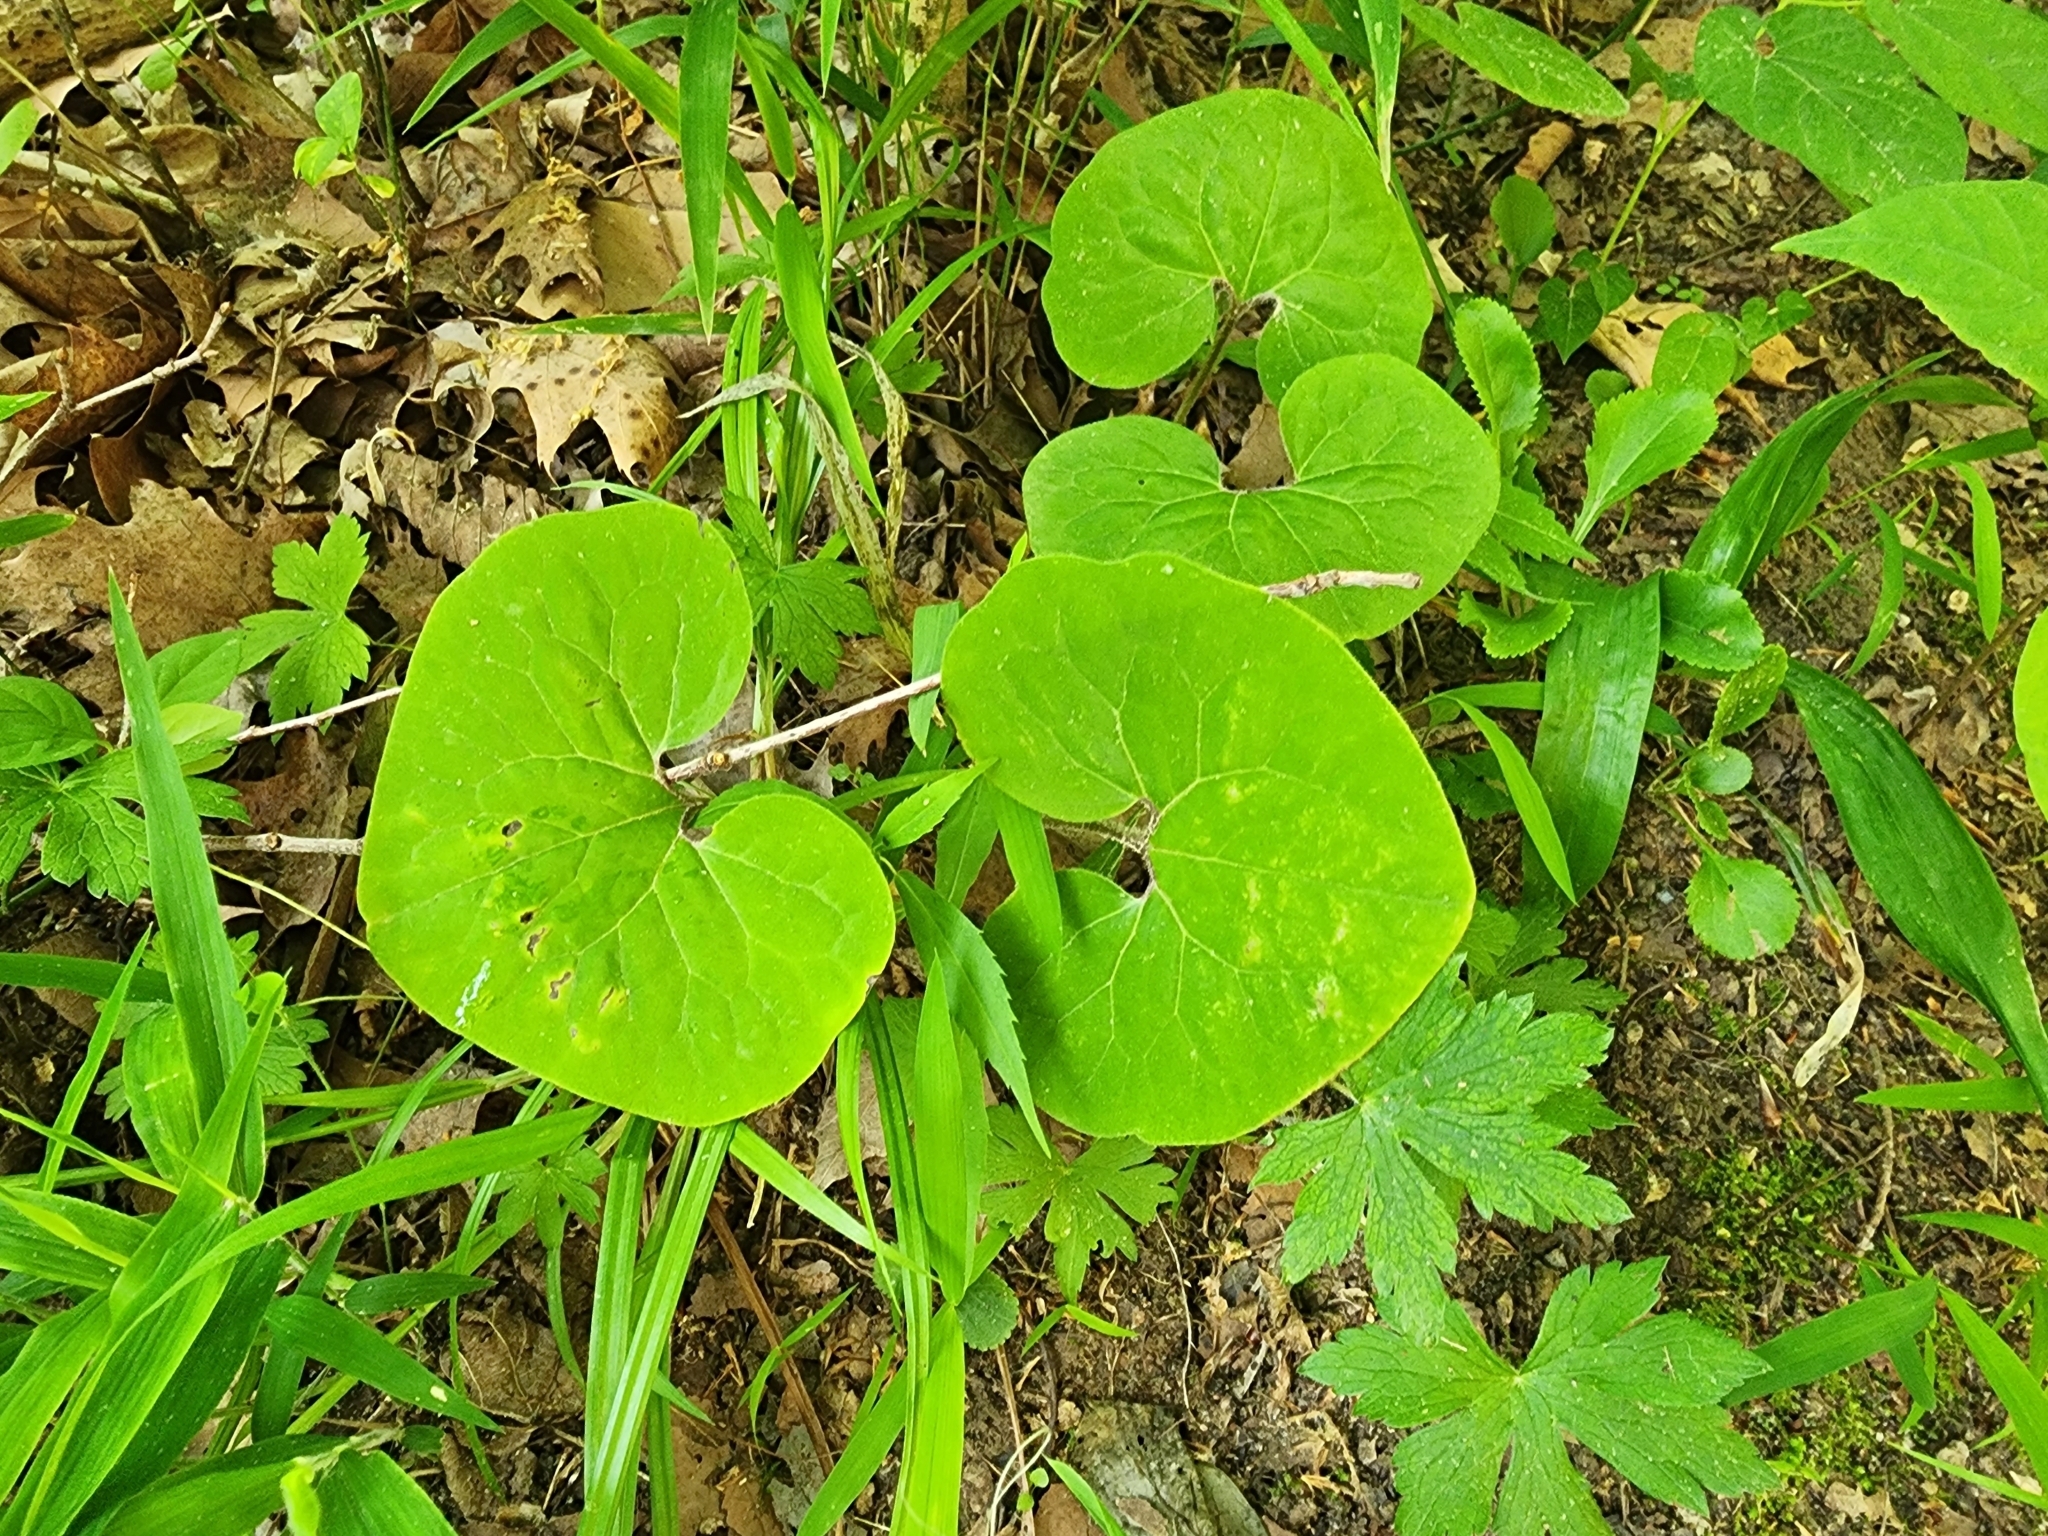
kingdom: Plantae
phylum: Tracheophyta
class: Magnoliopsida
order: Piperales
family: Aristolochiaceae
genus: Asarum
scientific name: Asarum canadense
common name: Wild ginger
